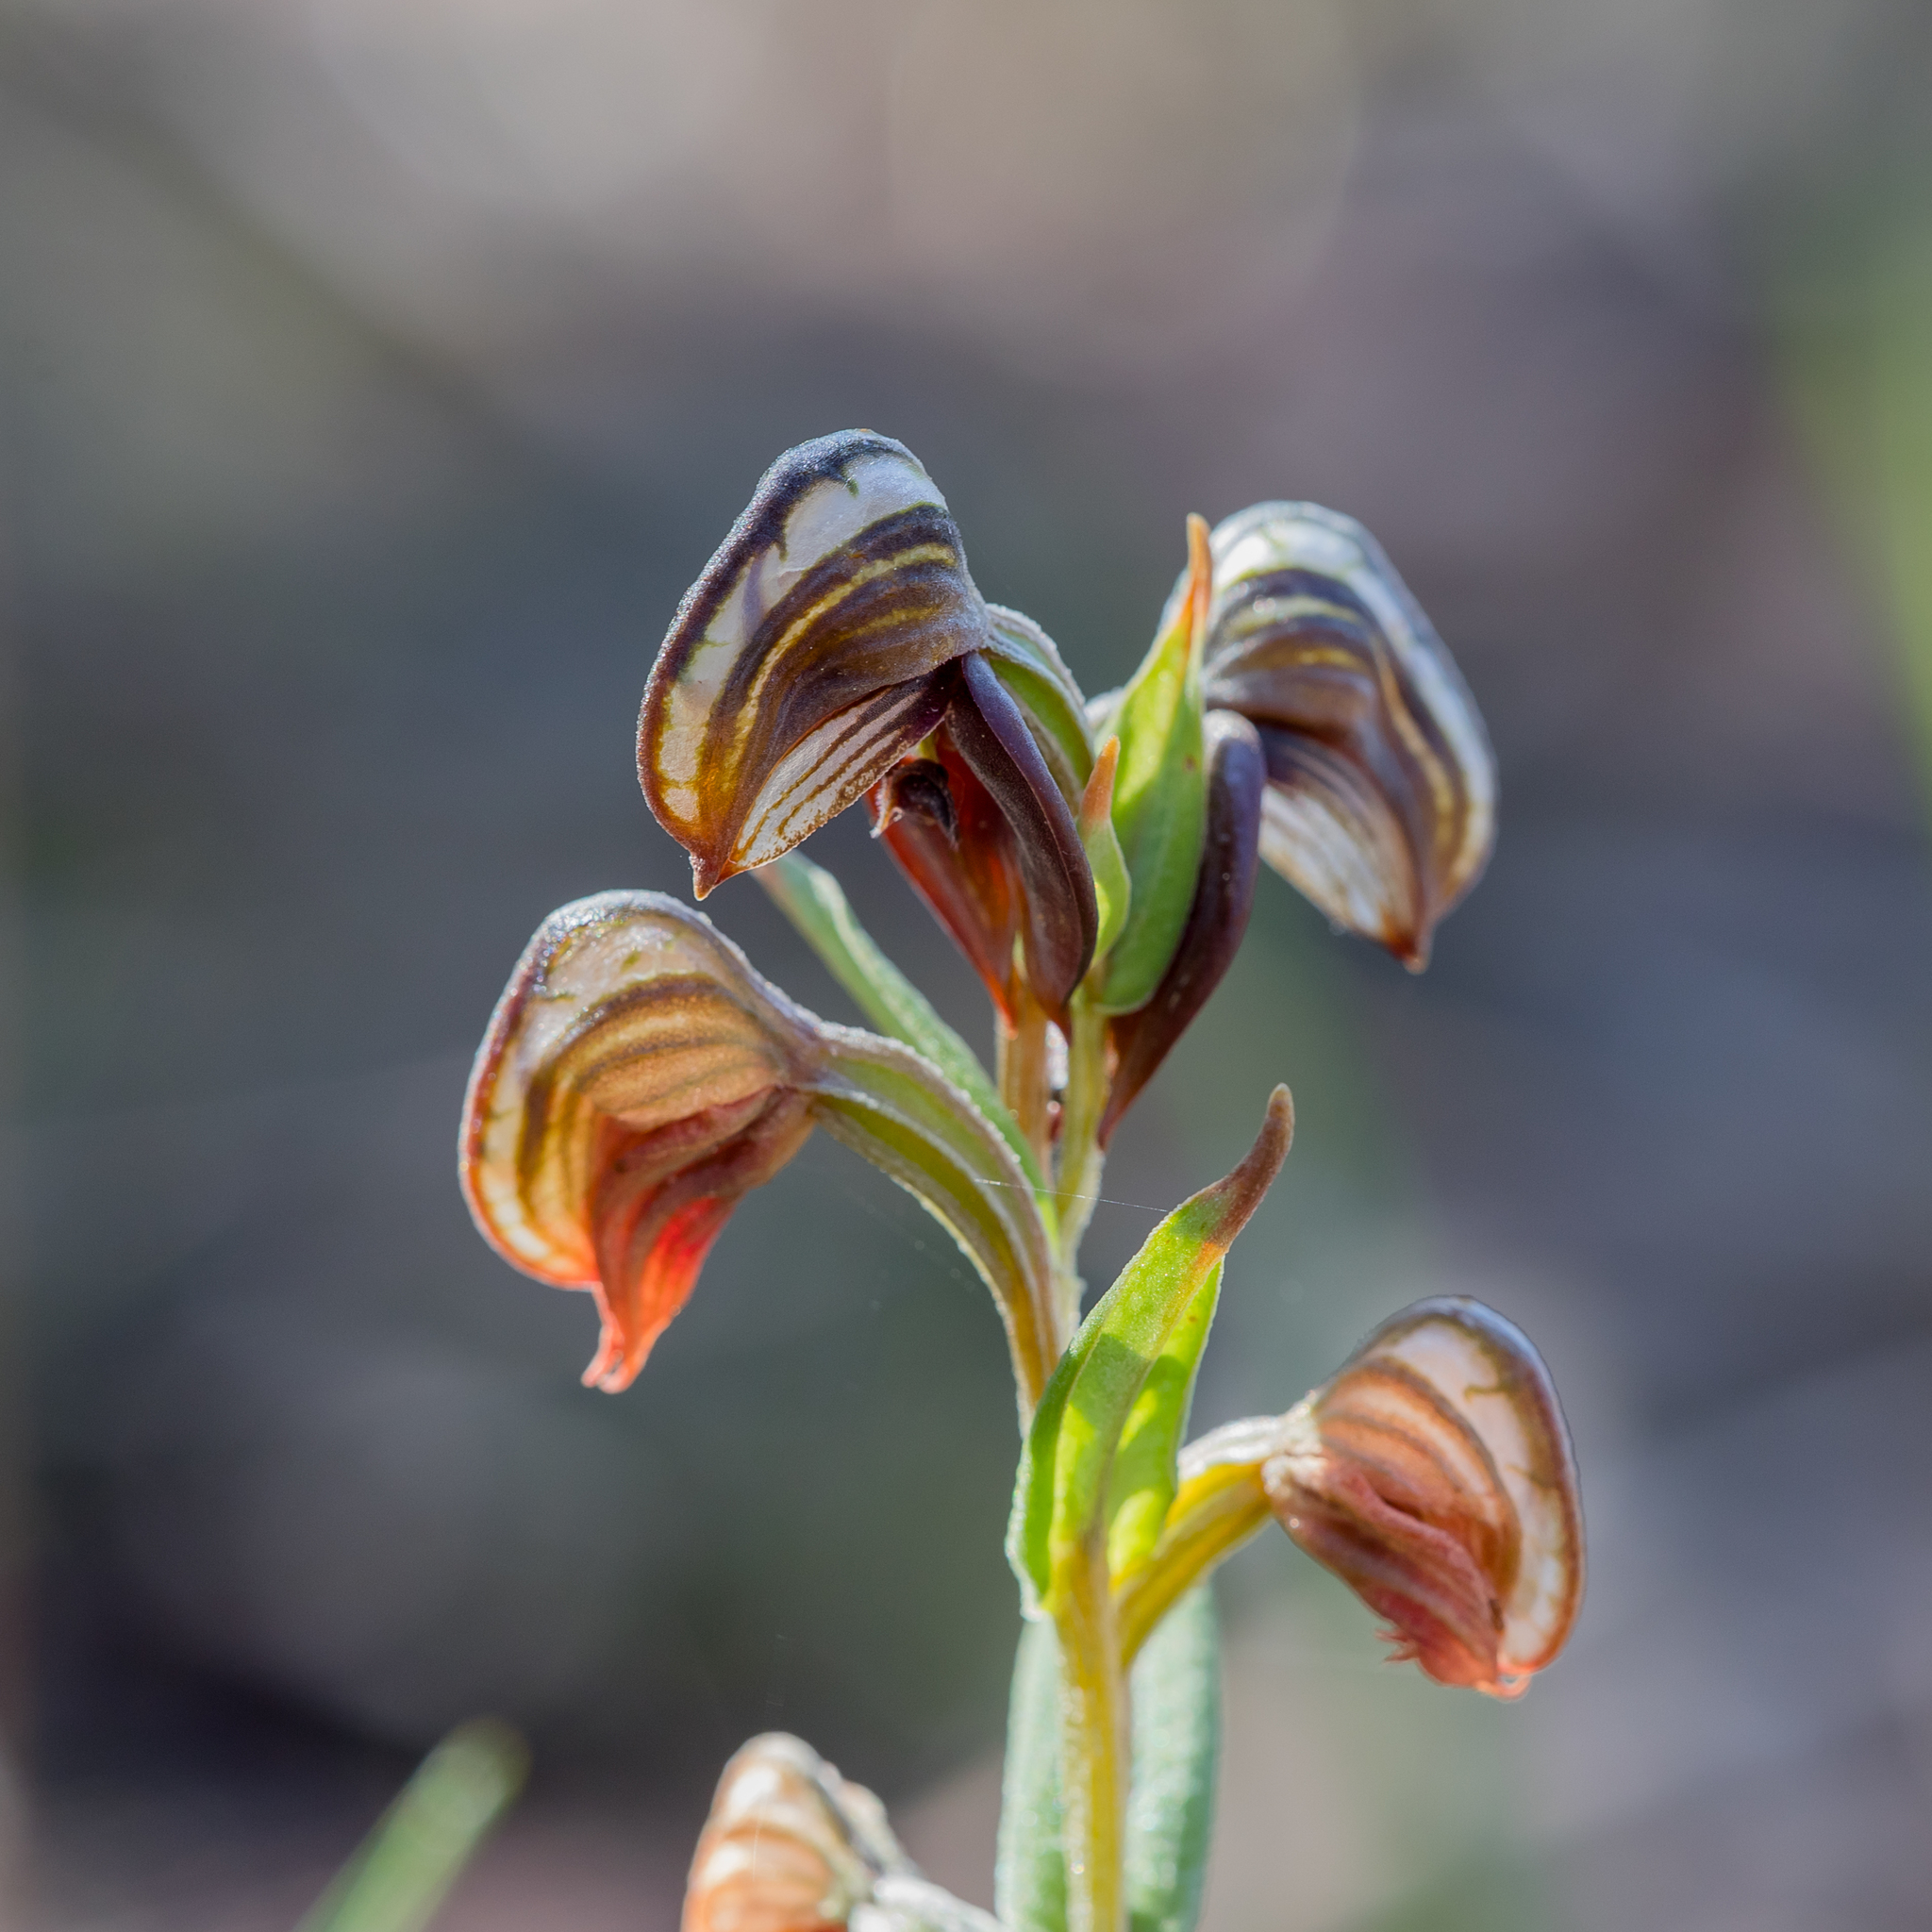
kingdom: Plantae
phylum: Tracheophyta
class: Liliopsida
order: Asparagales
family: Orchidaceae
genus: Pterostylis
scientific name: Pterostylis sanguinea
